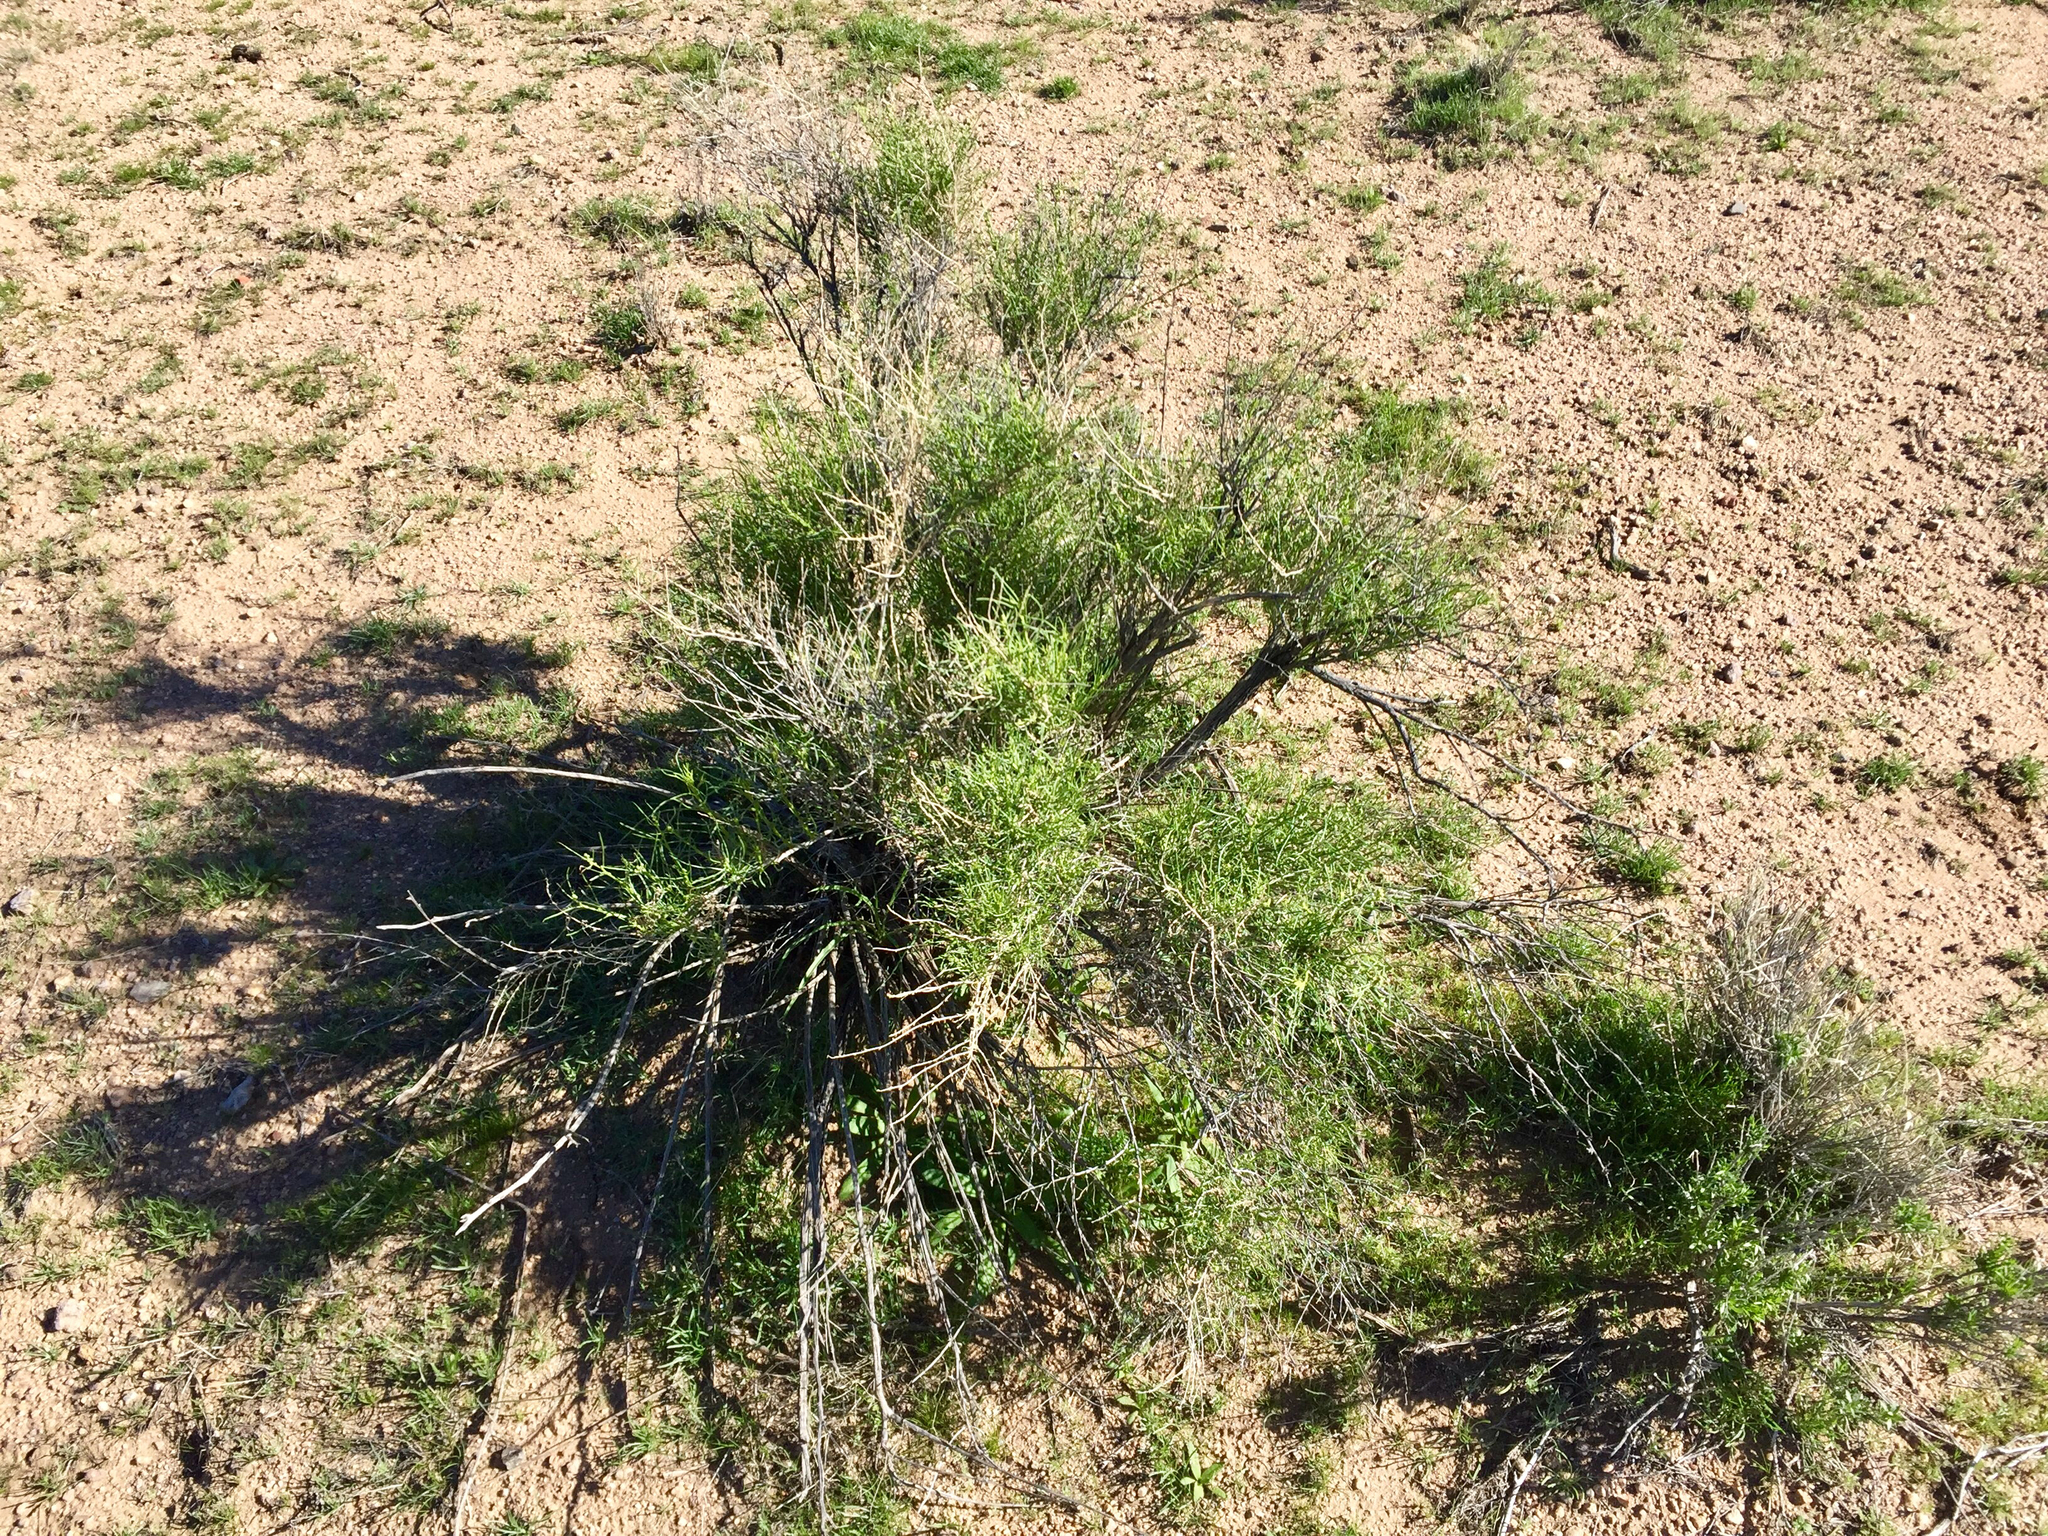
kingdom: Plantae
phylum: Tracheophyta
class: Magnoliopsida
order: Asterales
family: Asteraceae
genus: Ambrosia
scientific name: Ambrosia salsola
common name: Burrobrush
